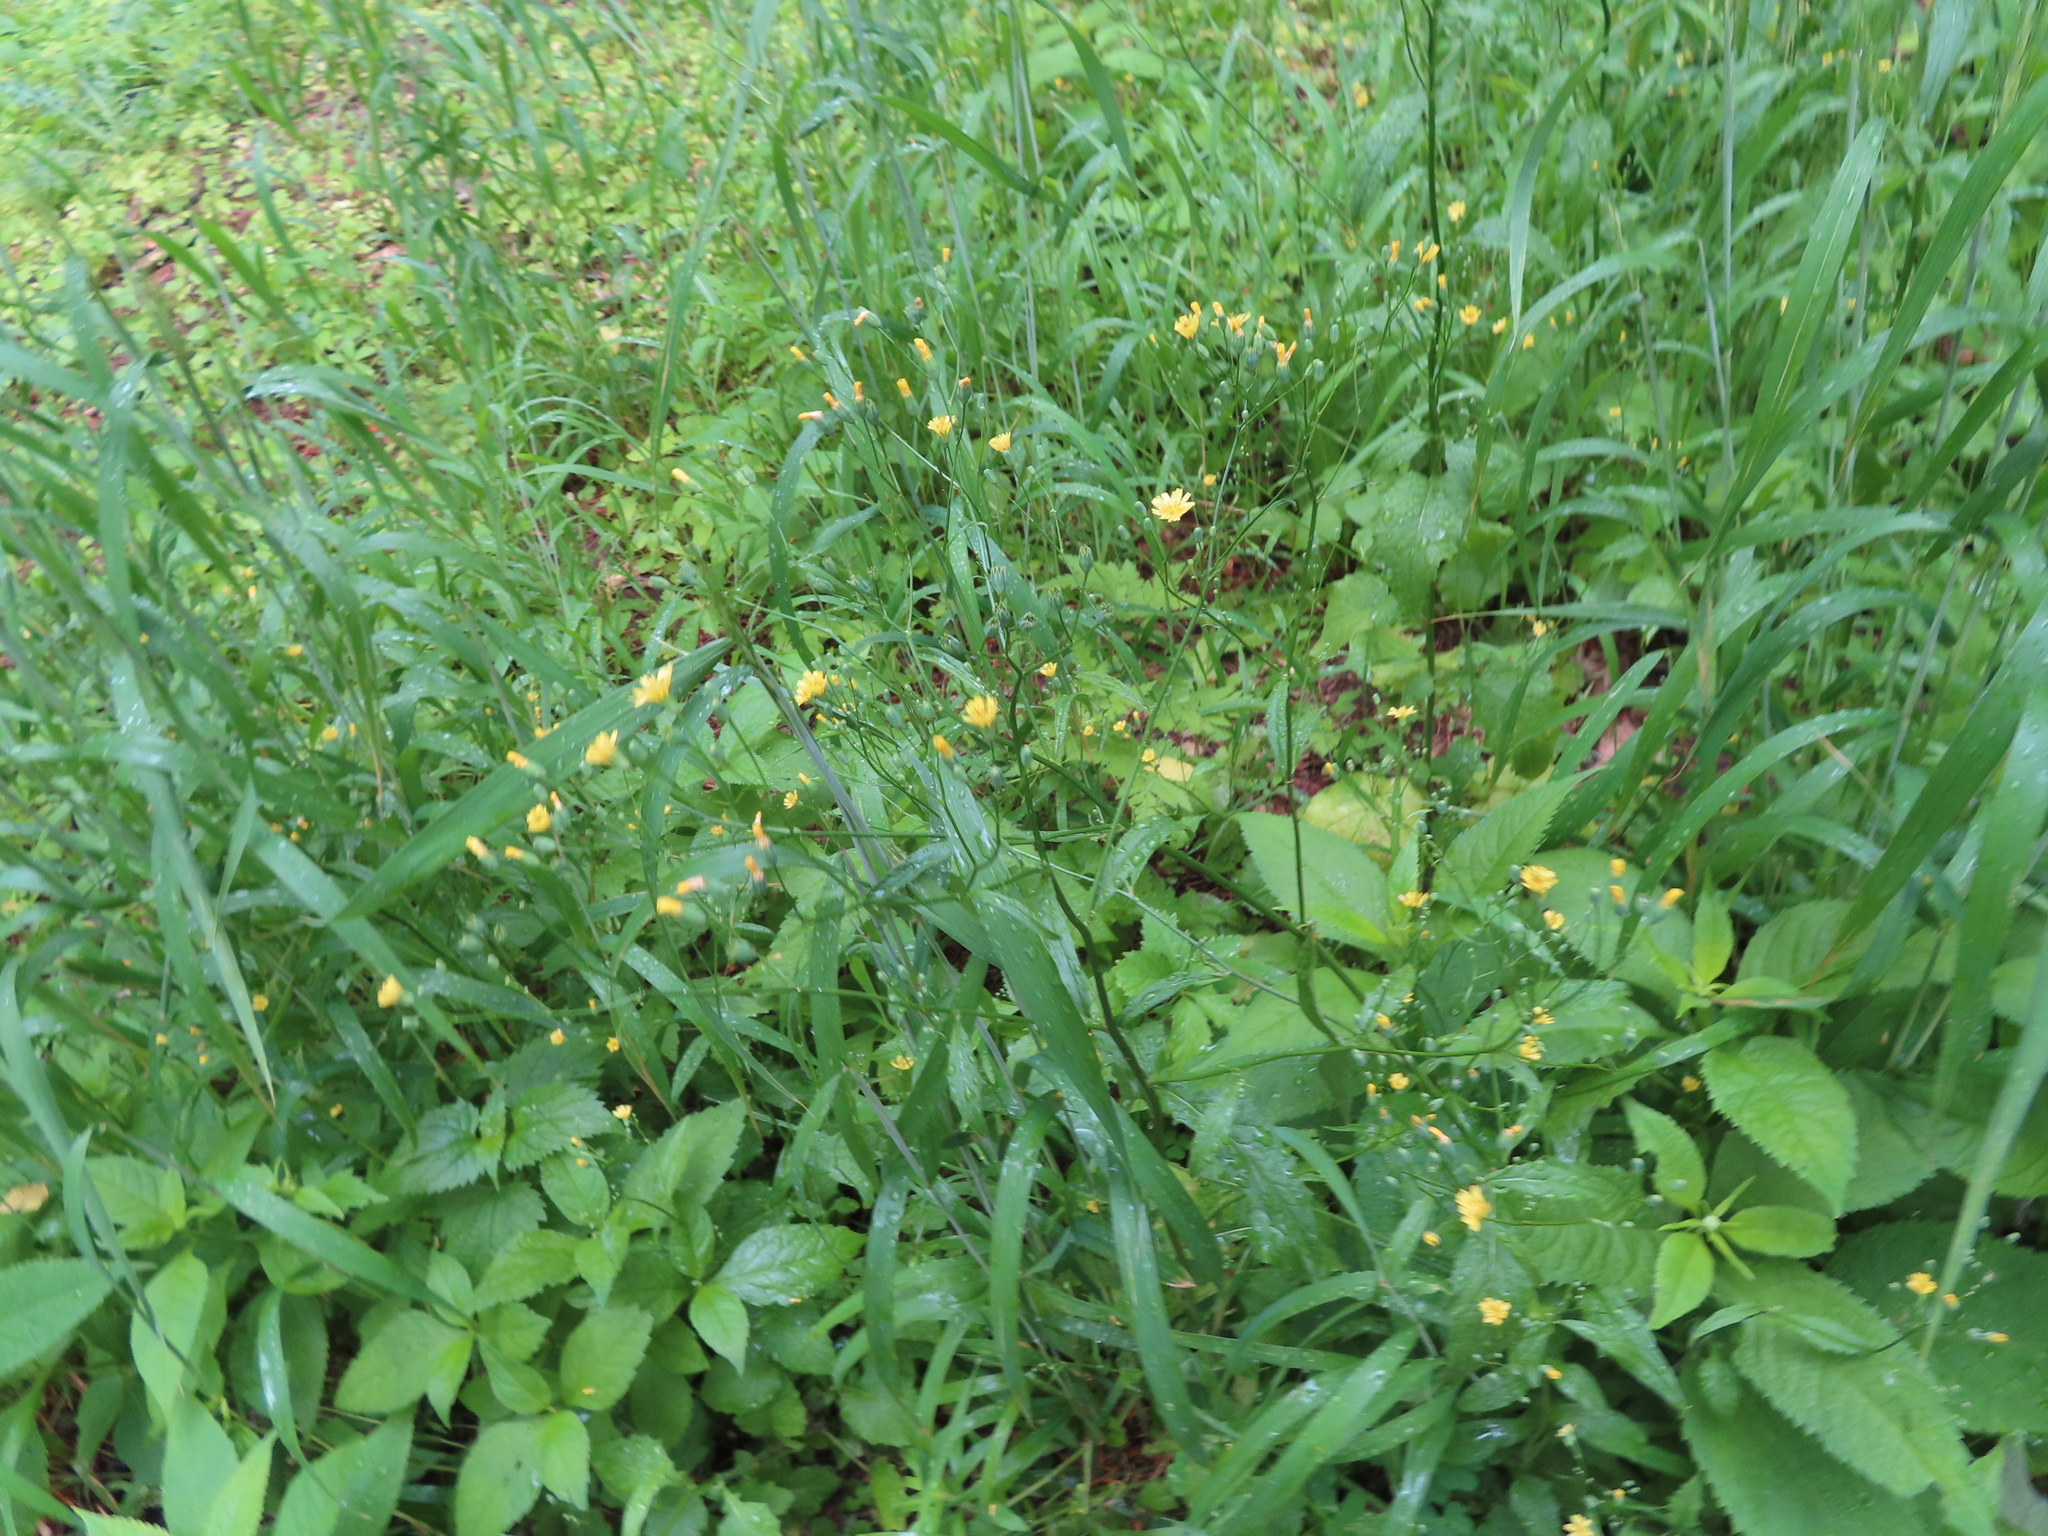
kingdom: Plantae
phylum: Tracheophyta
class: Magnoliopsida
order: Asterales
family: Asteraceae
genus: Lapsana
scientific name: Lapsana communis
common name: Nipplewort
